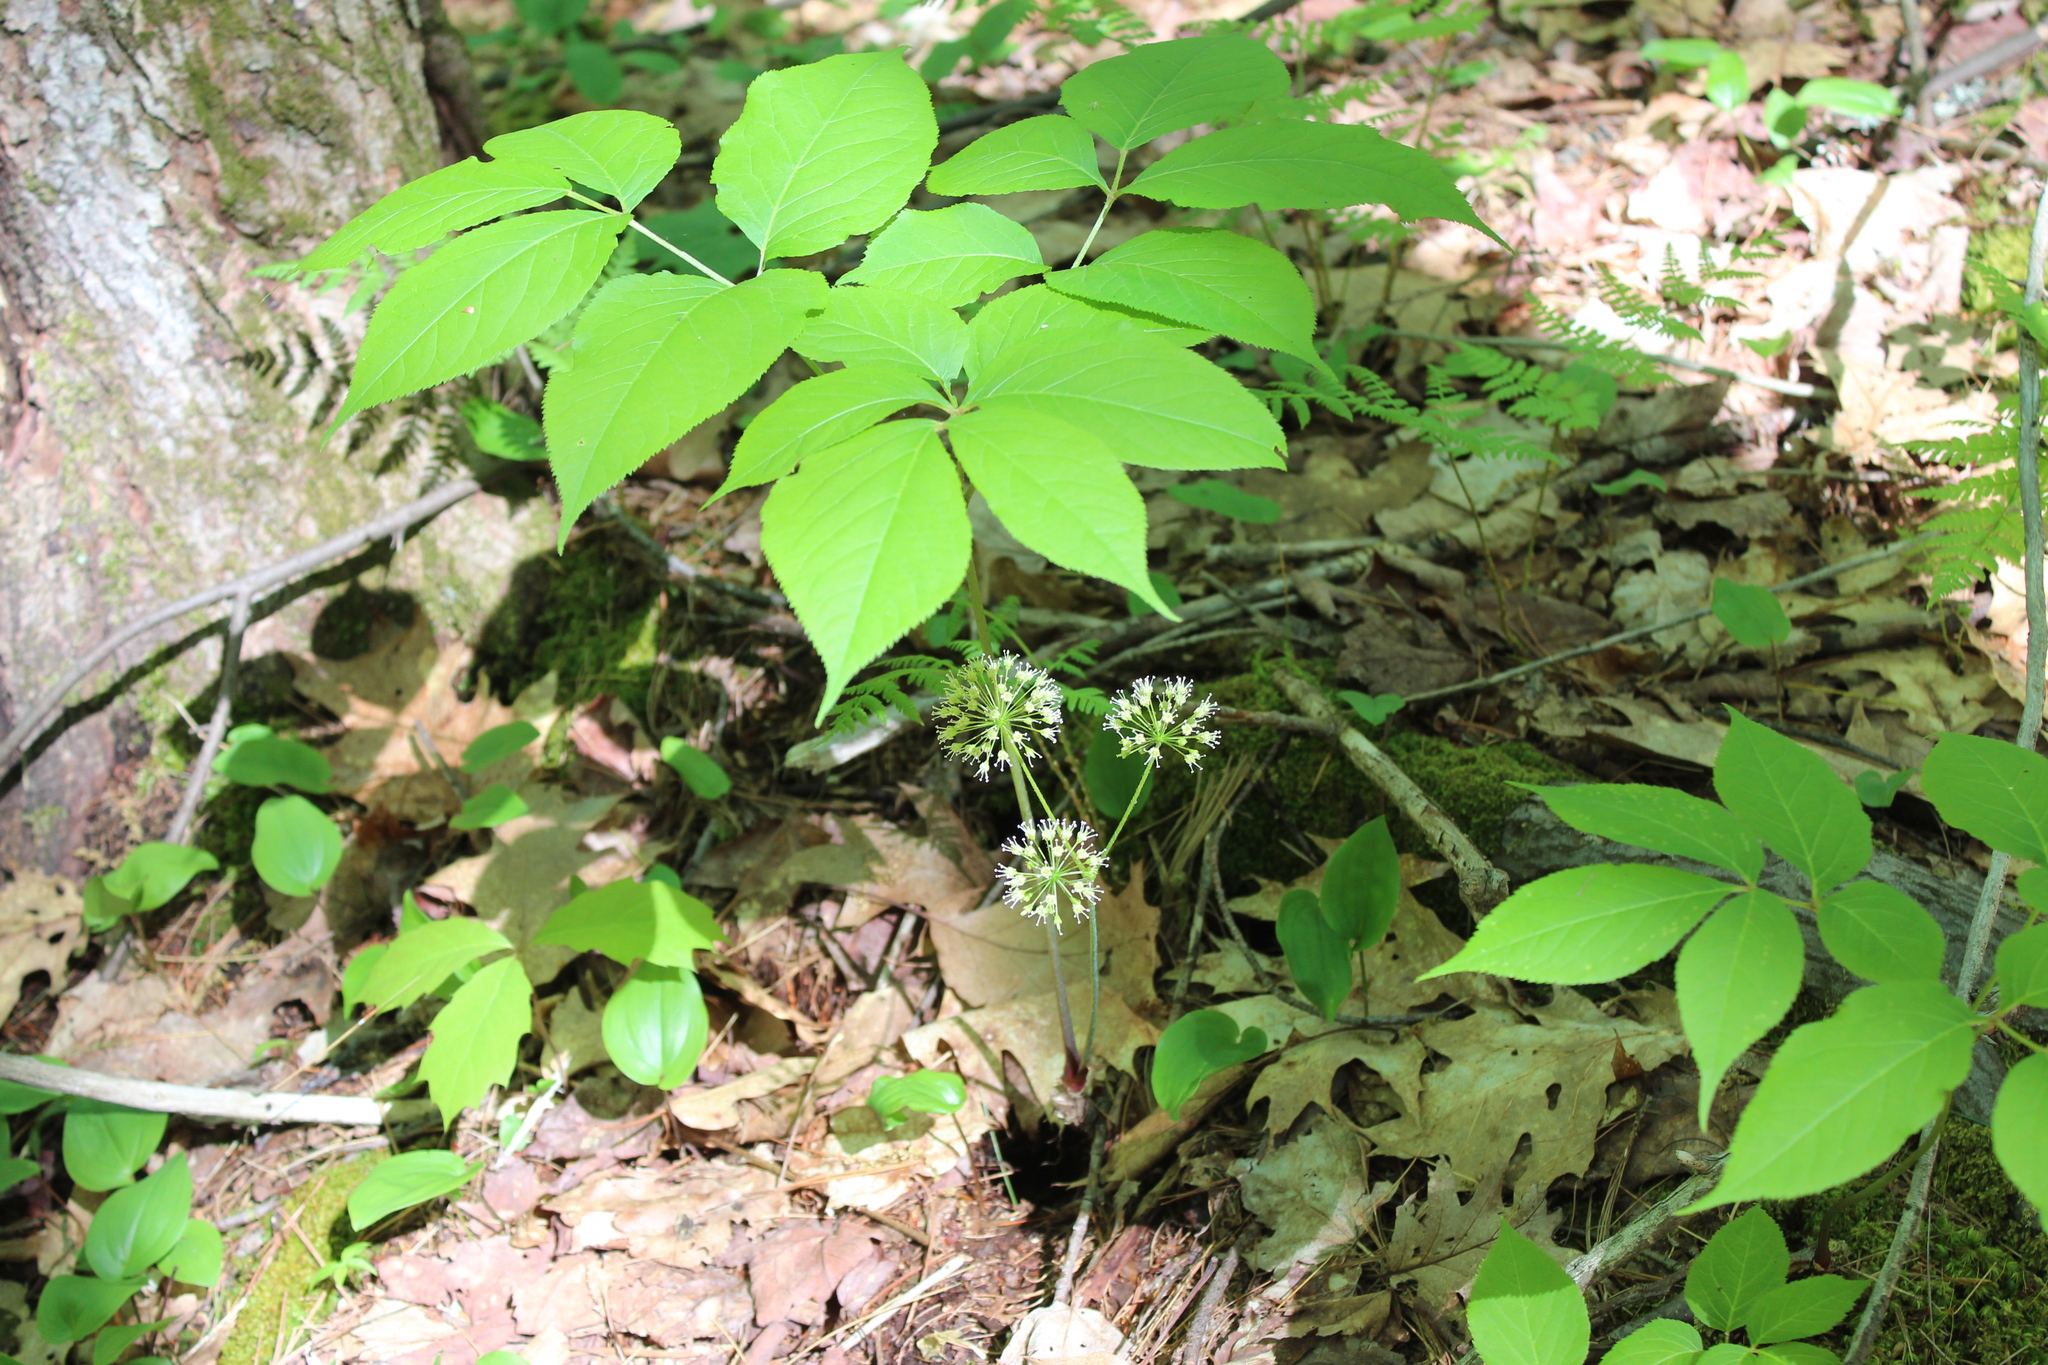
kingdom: Plantae
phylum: Tracheophyta
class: Magnoliopsida
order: Apiales
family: Araliaceae
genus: Aralia
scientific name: Aralia nudicaulis
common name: Wild sarsaparilla
